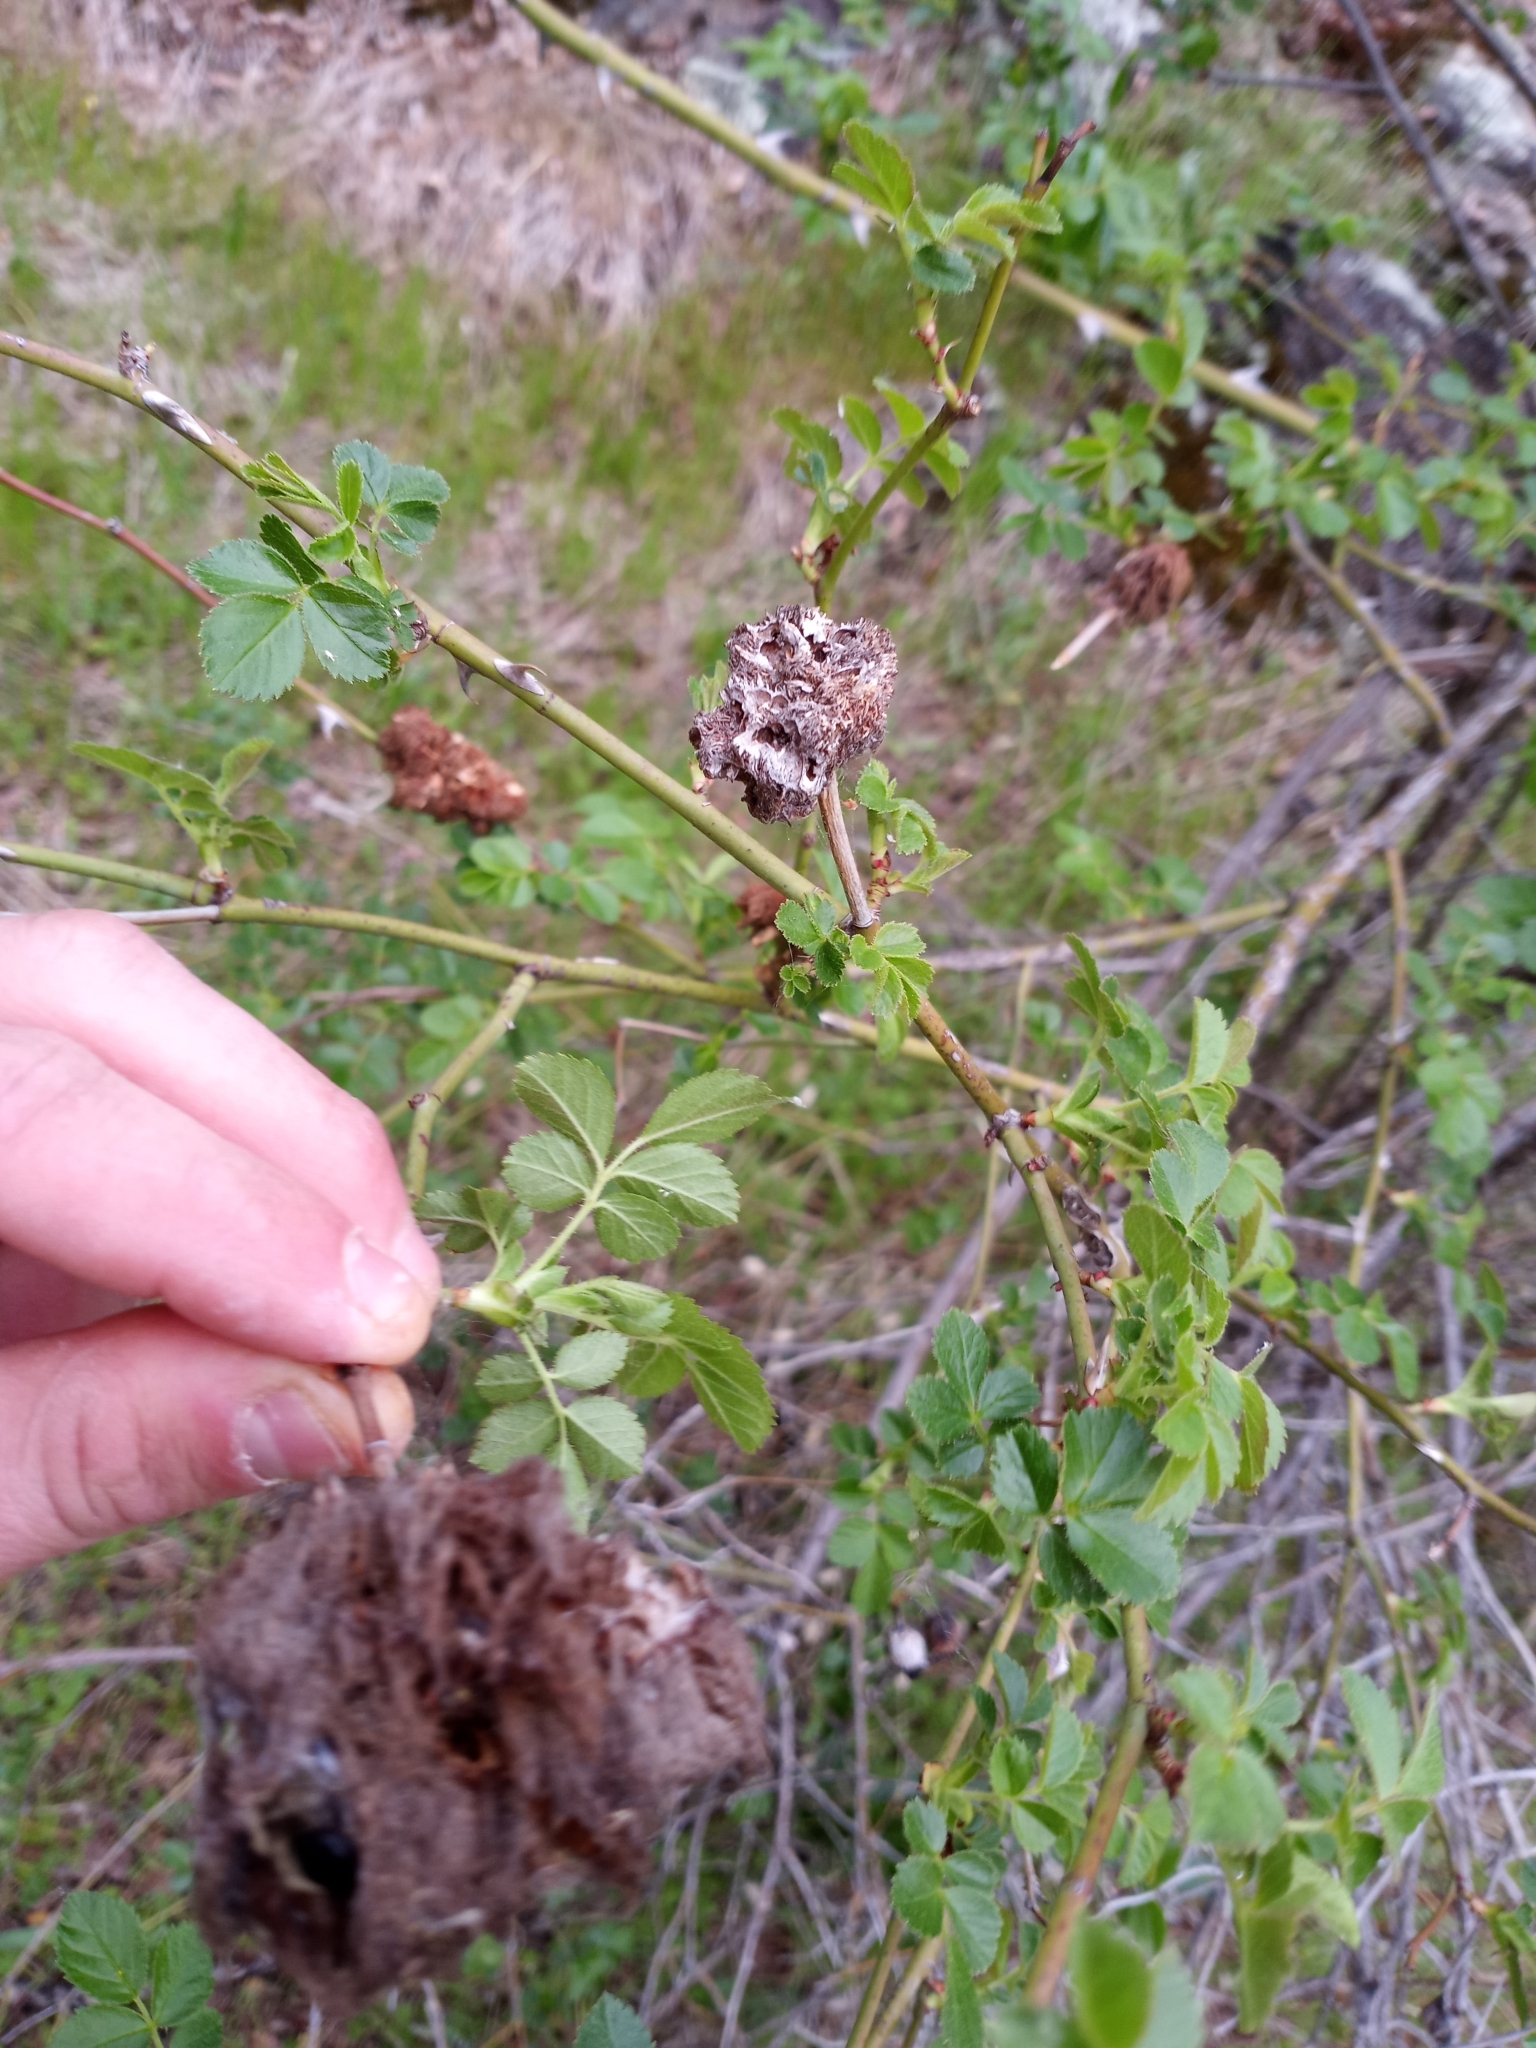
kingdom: Animalia
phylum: Arthropoda
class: Insecta
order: Hymenoptera
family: Cynipidae
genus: Diplolepis
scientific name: Diplolepis rosae
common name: Bedeguar gall
